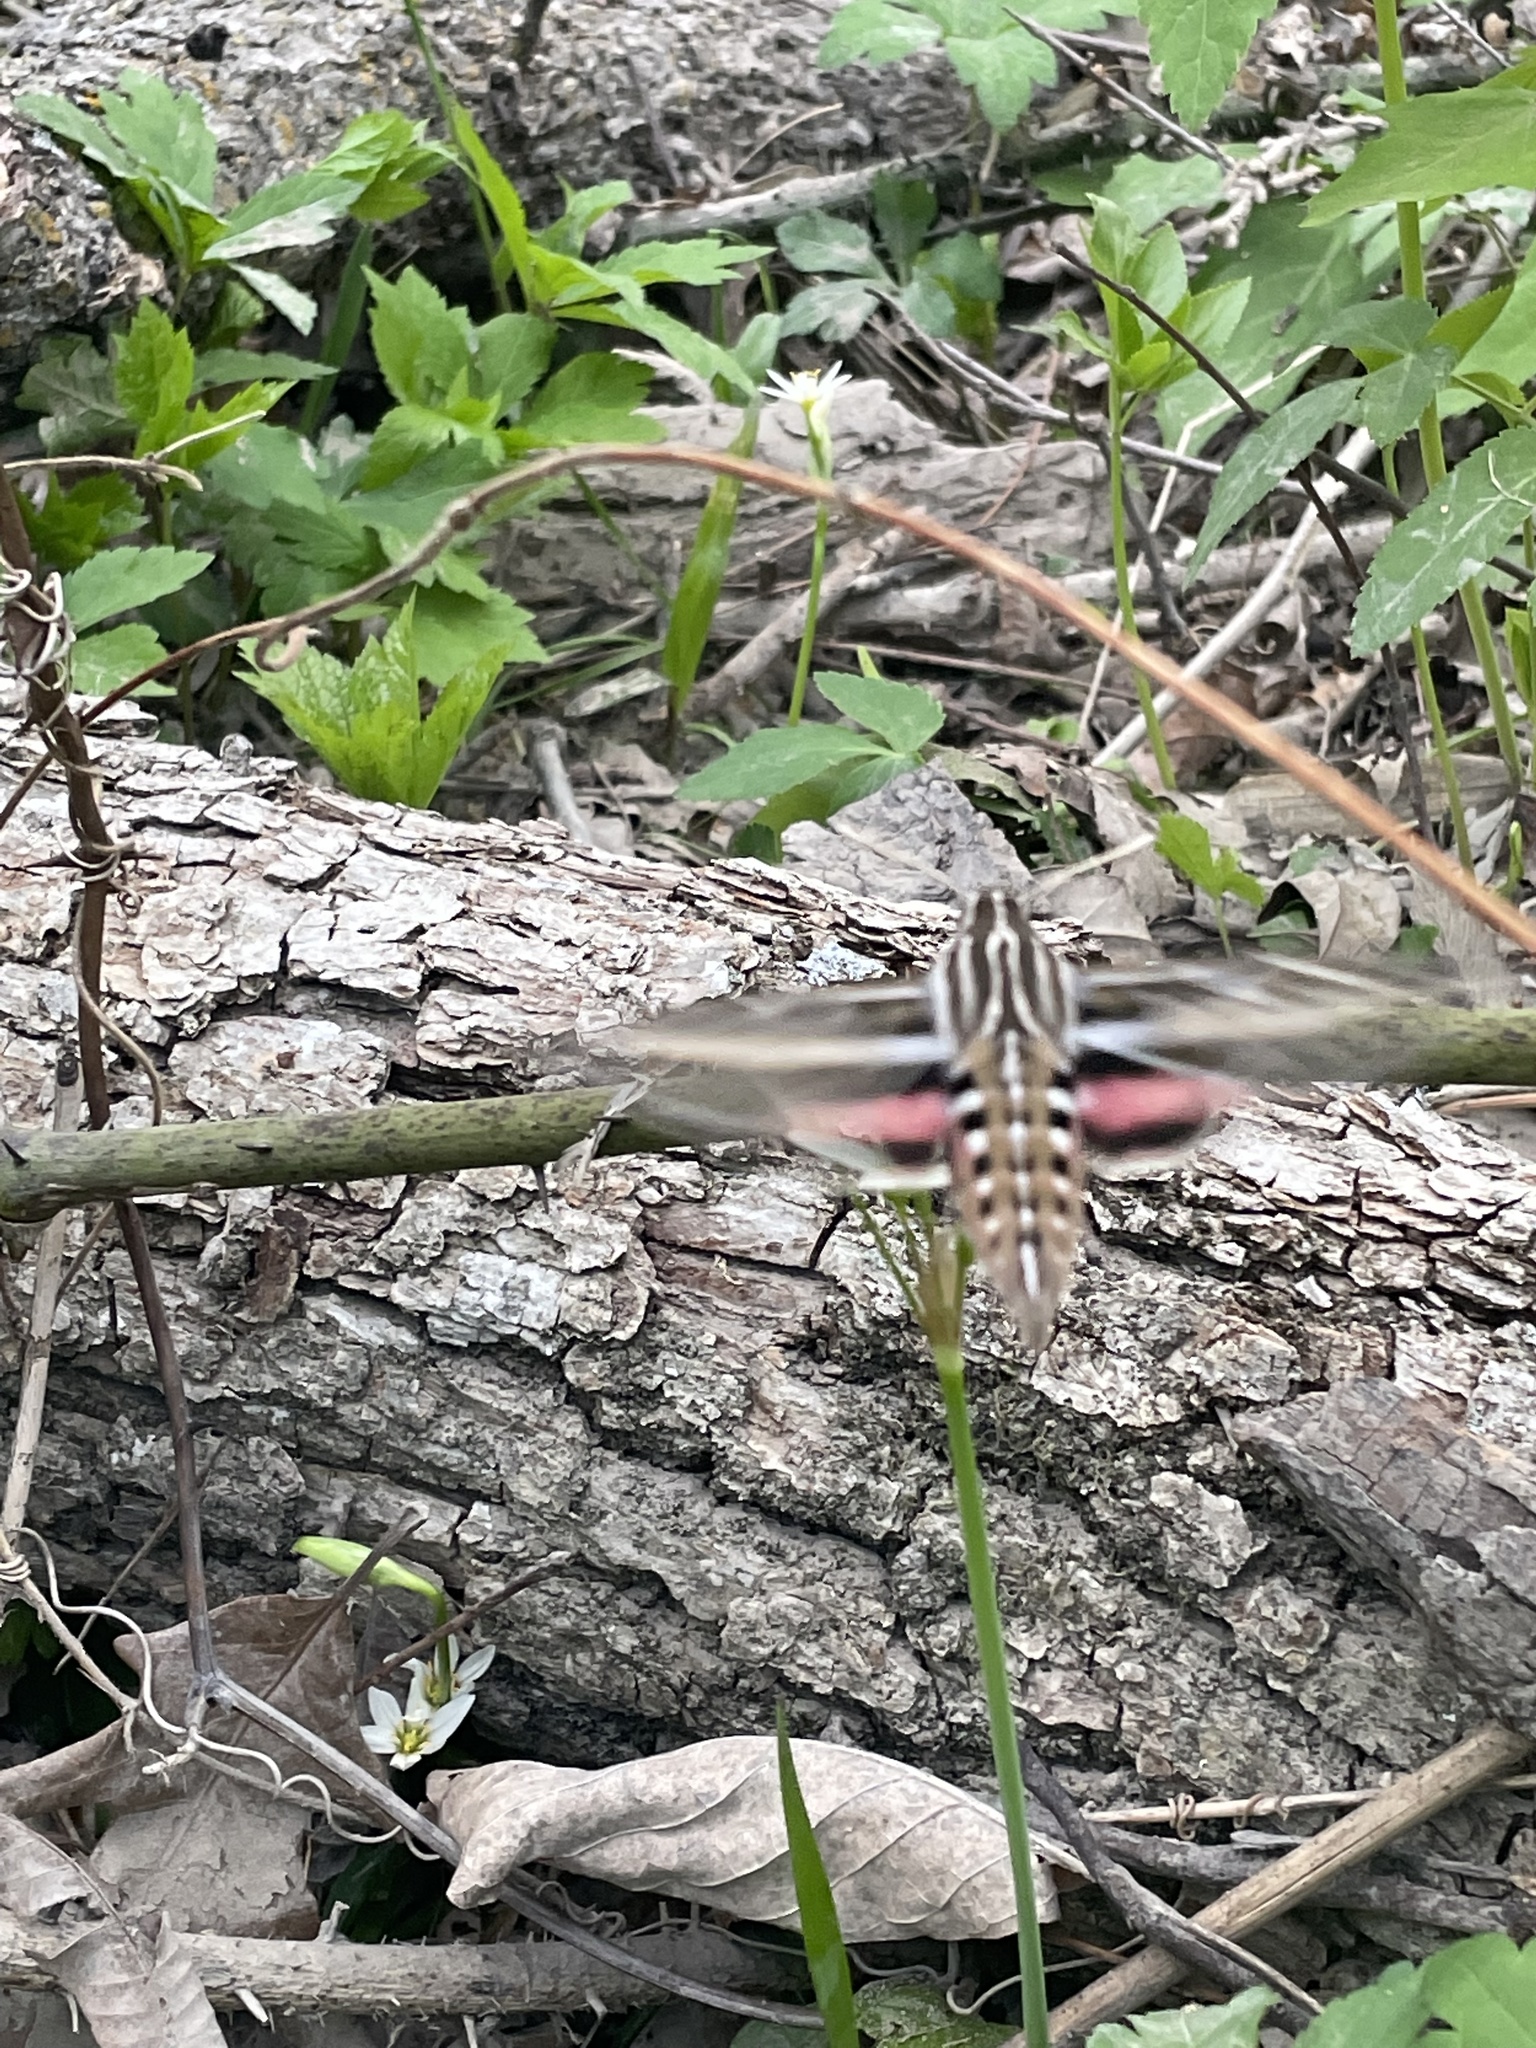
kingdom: Animalia
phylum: Arthropoda
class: Insecta
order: Lepidoptera
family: Sphingidae
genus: Hyles
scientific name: Hyles lineata
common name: White-lined sphinx
